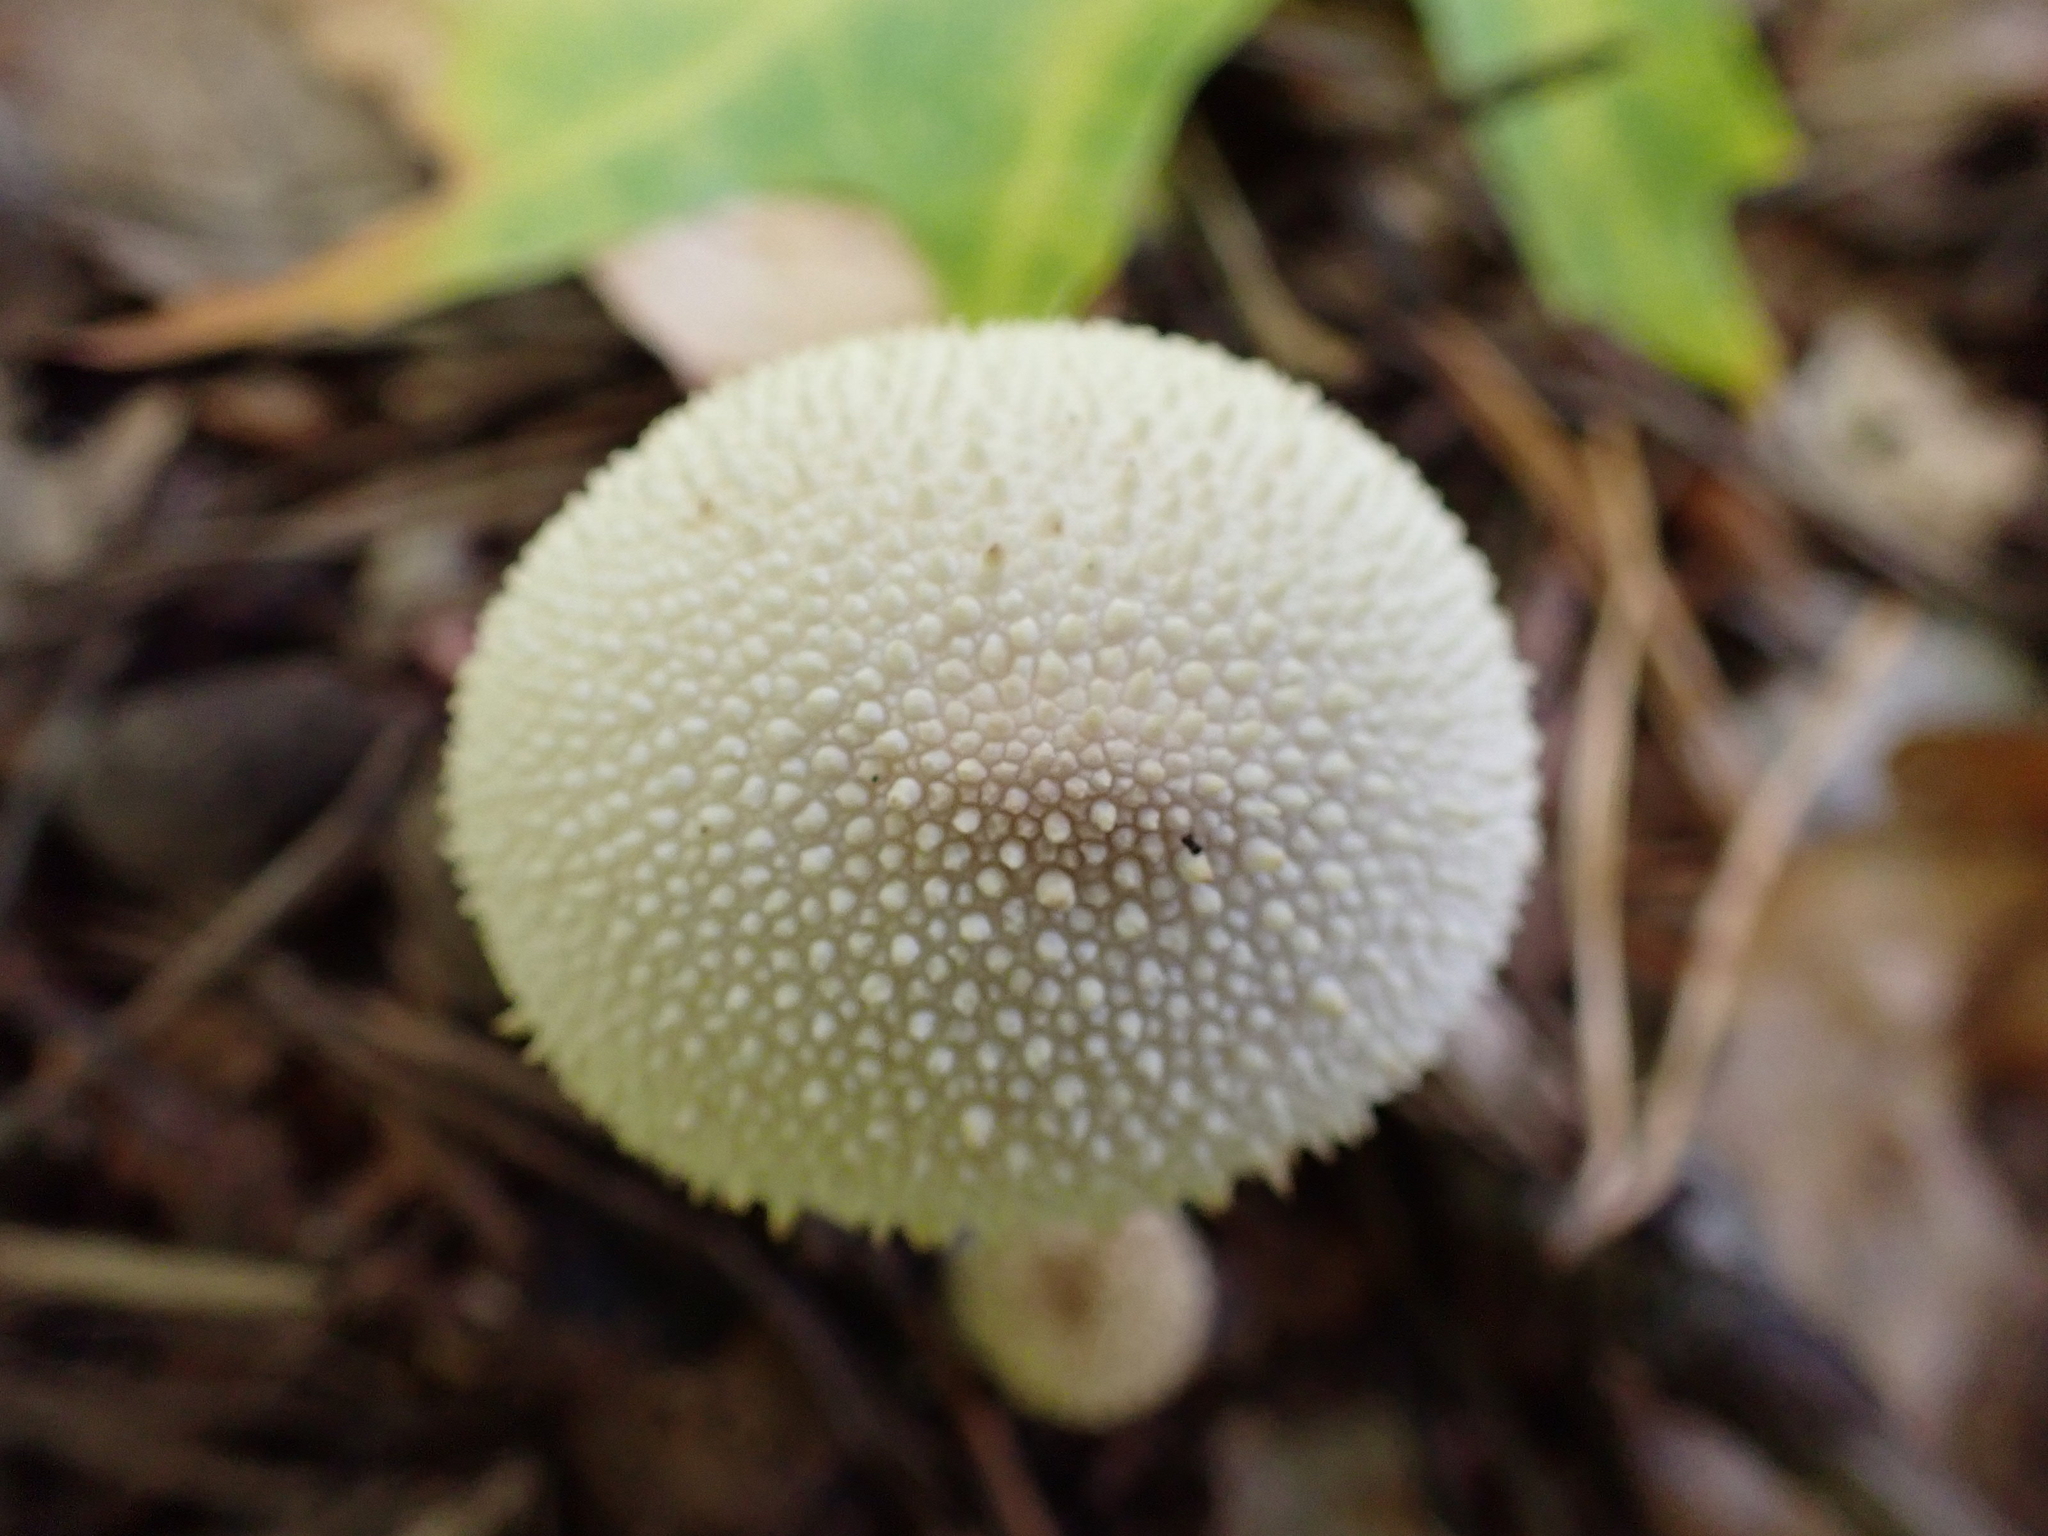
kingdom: Fungi
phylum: Basidiomycota
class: Agaricomycetes
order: Agaricales
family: Lycoperdaceae
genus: Lycoperdon
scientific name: Lycoperdon perlatum
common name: Common puffball
